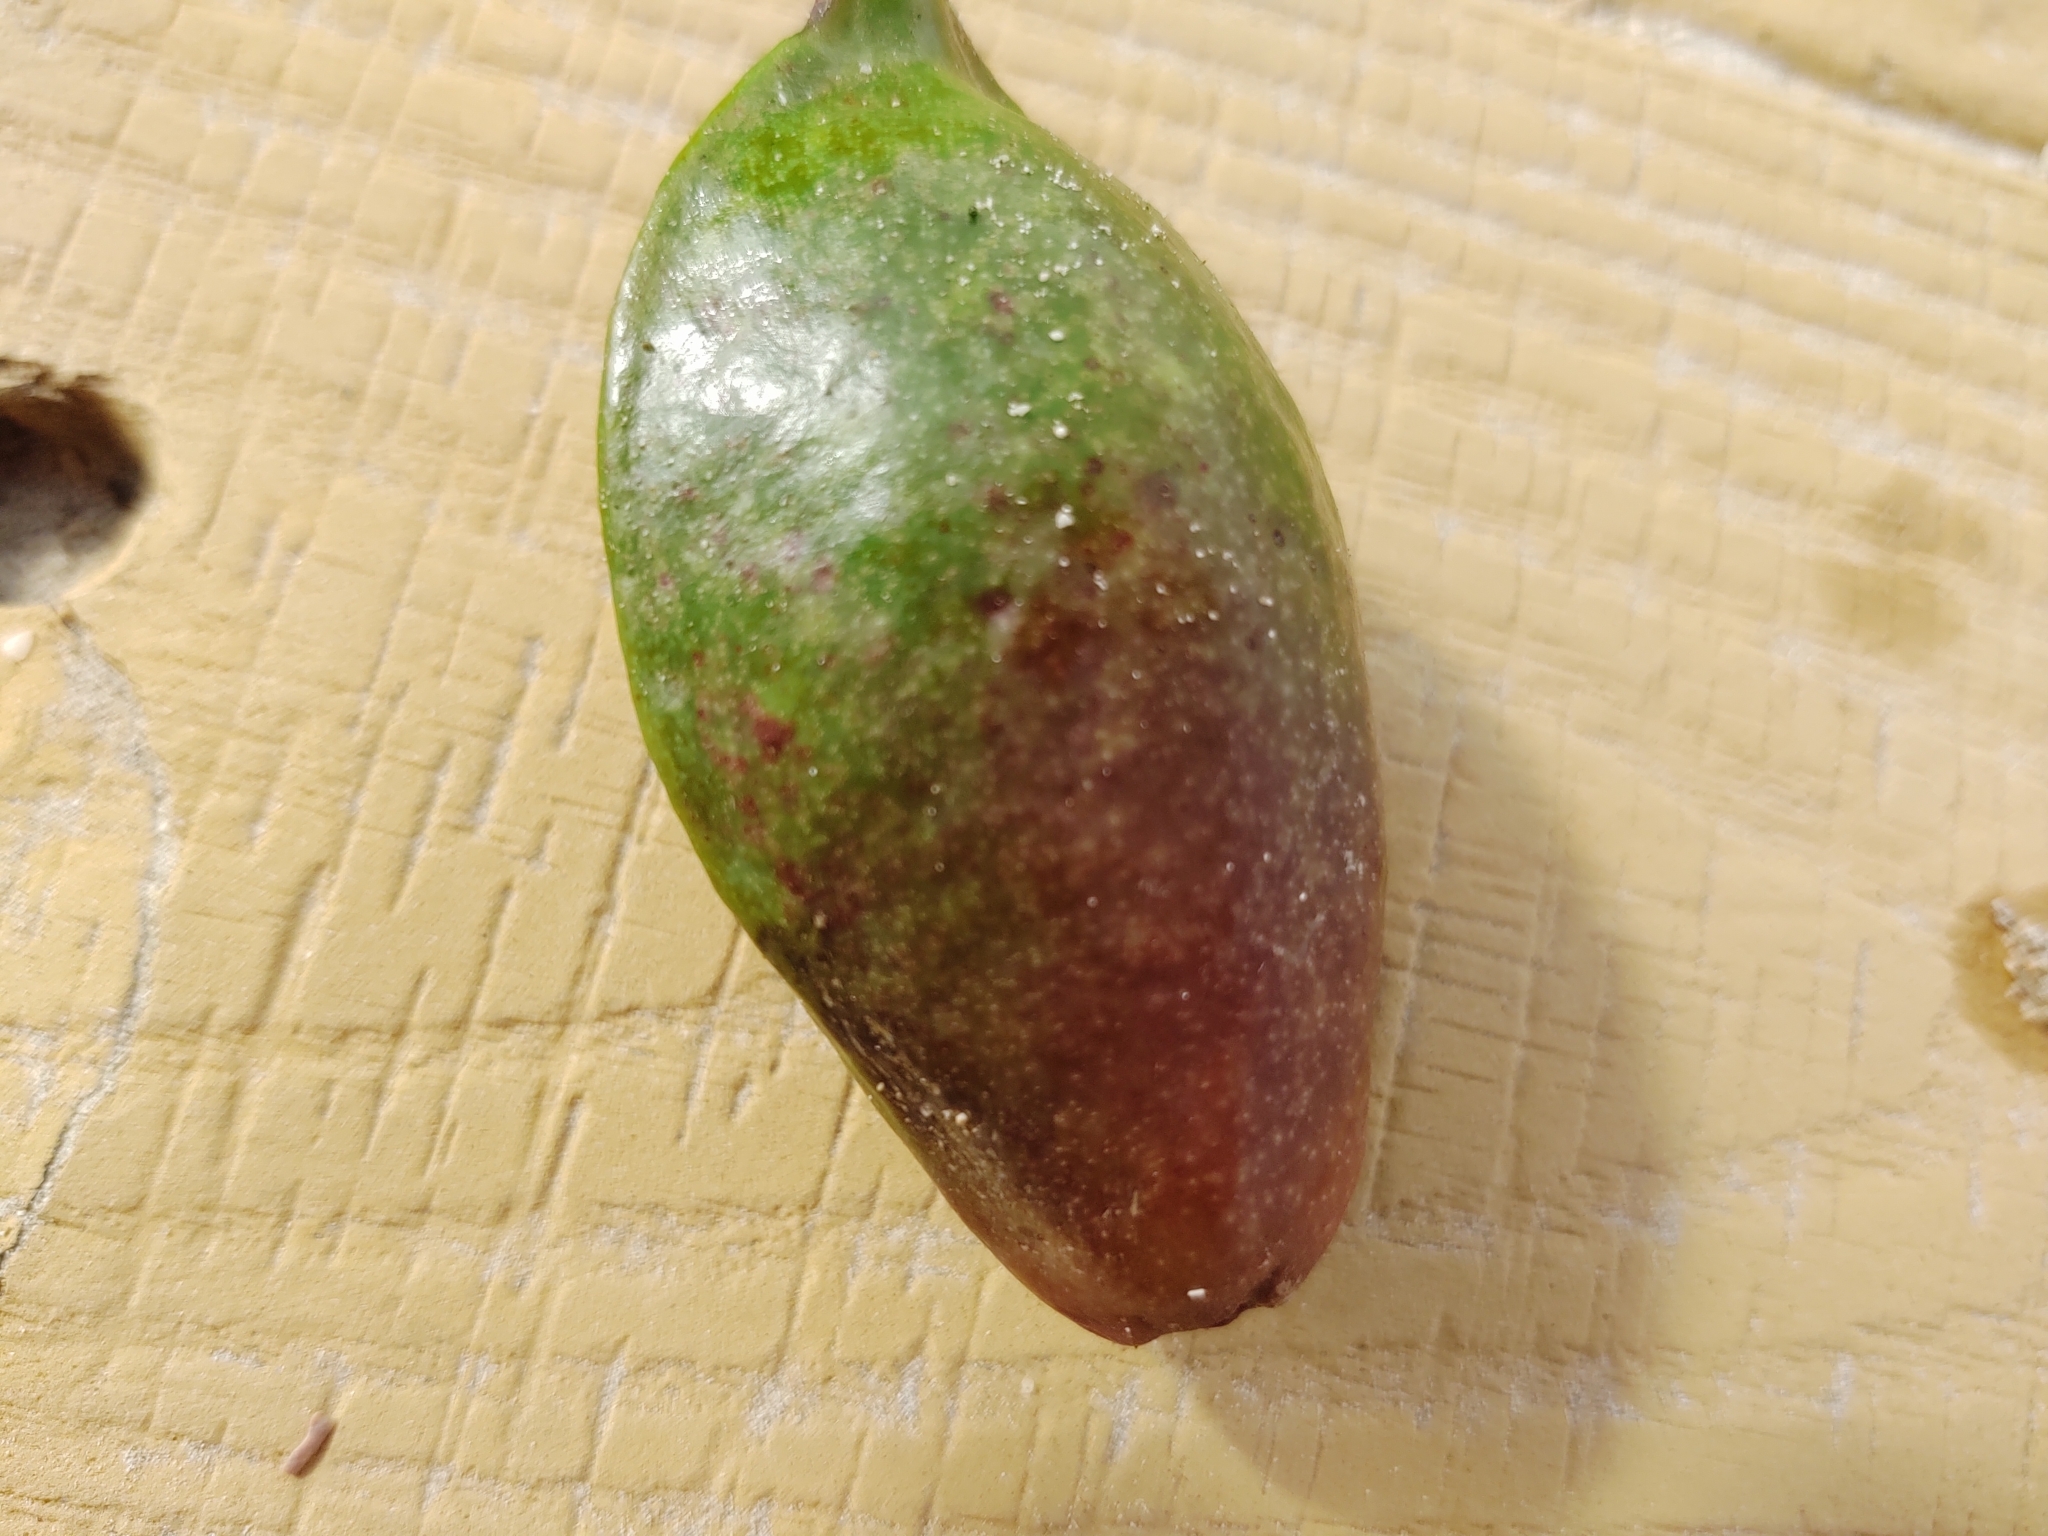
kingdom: Plantae
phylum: Tracheophyta
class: Magnoliopsida
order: Myrtales
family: Combretaceae
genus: Terminalia
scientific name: Terminalia catappa
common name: Tropical almond
